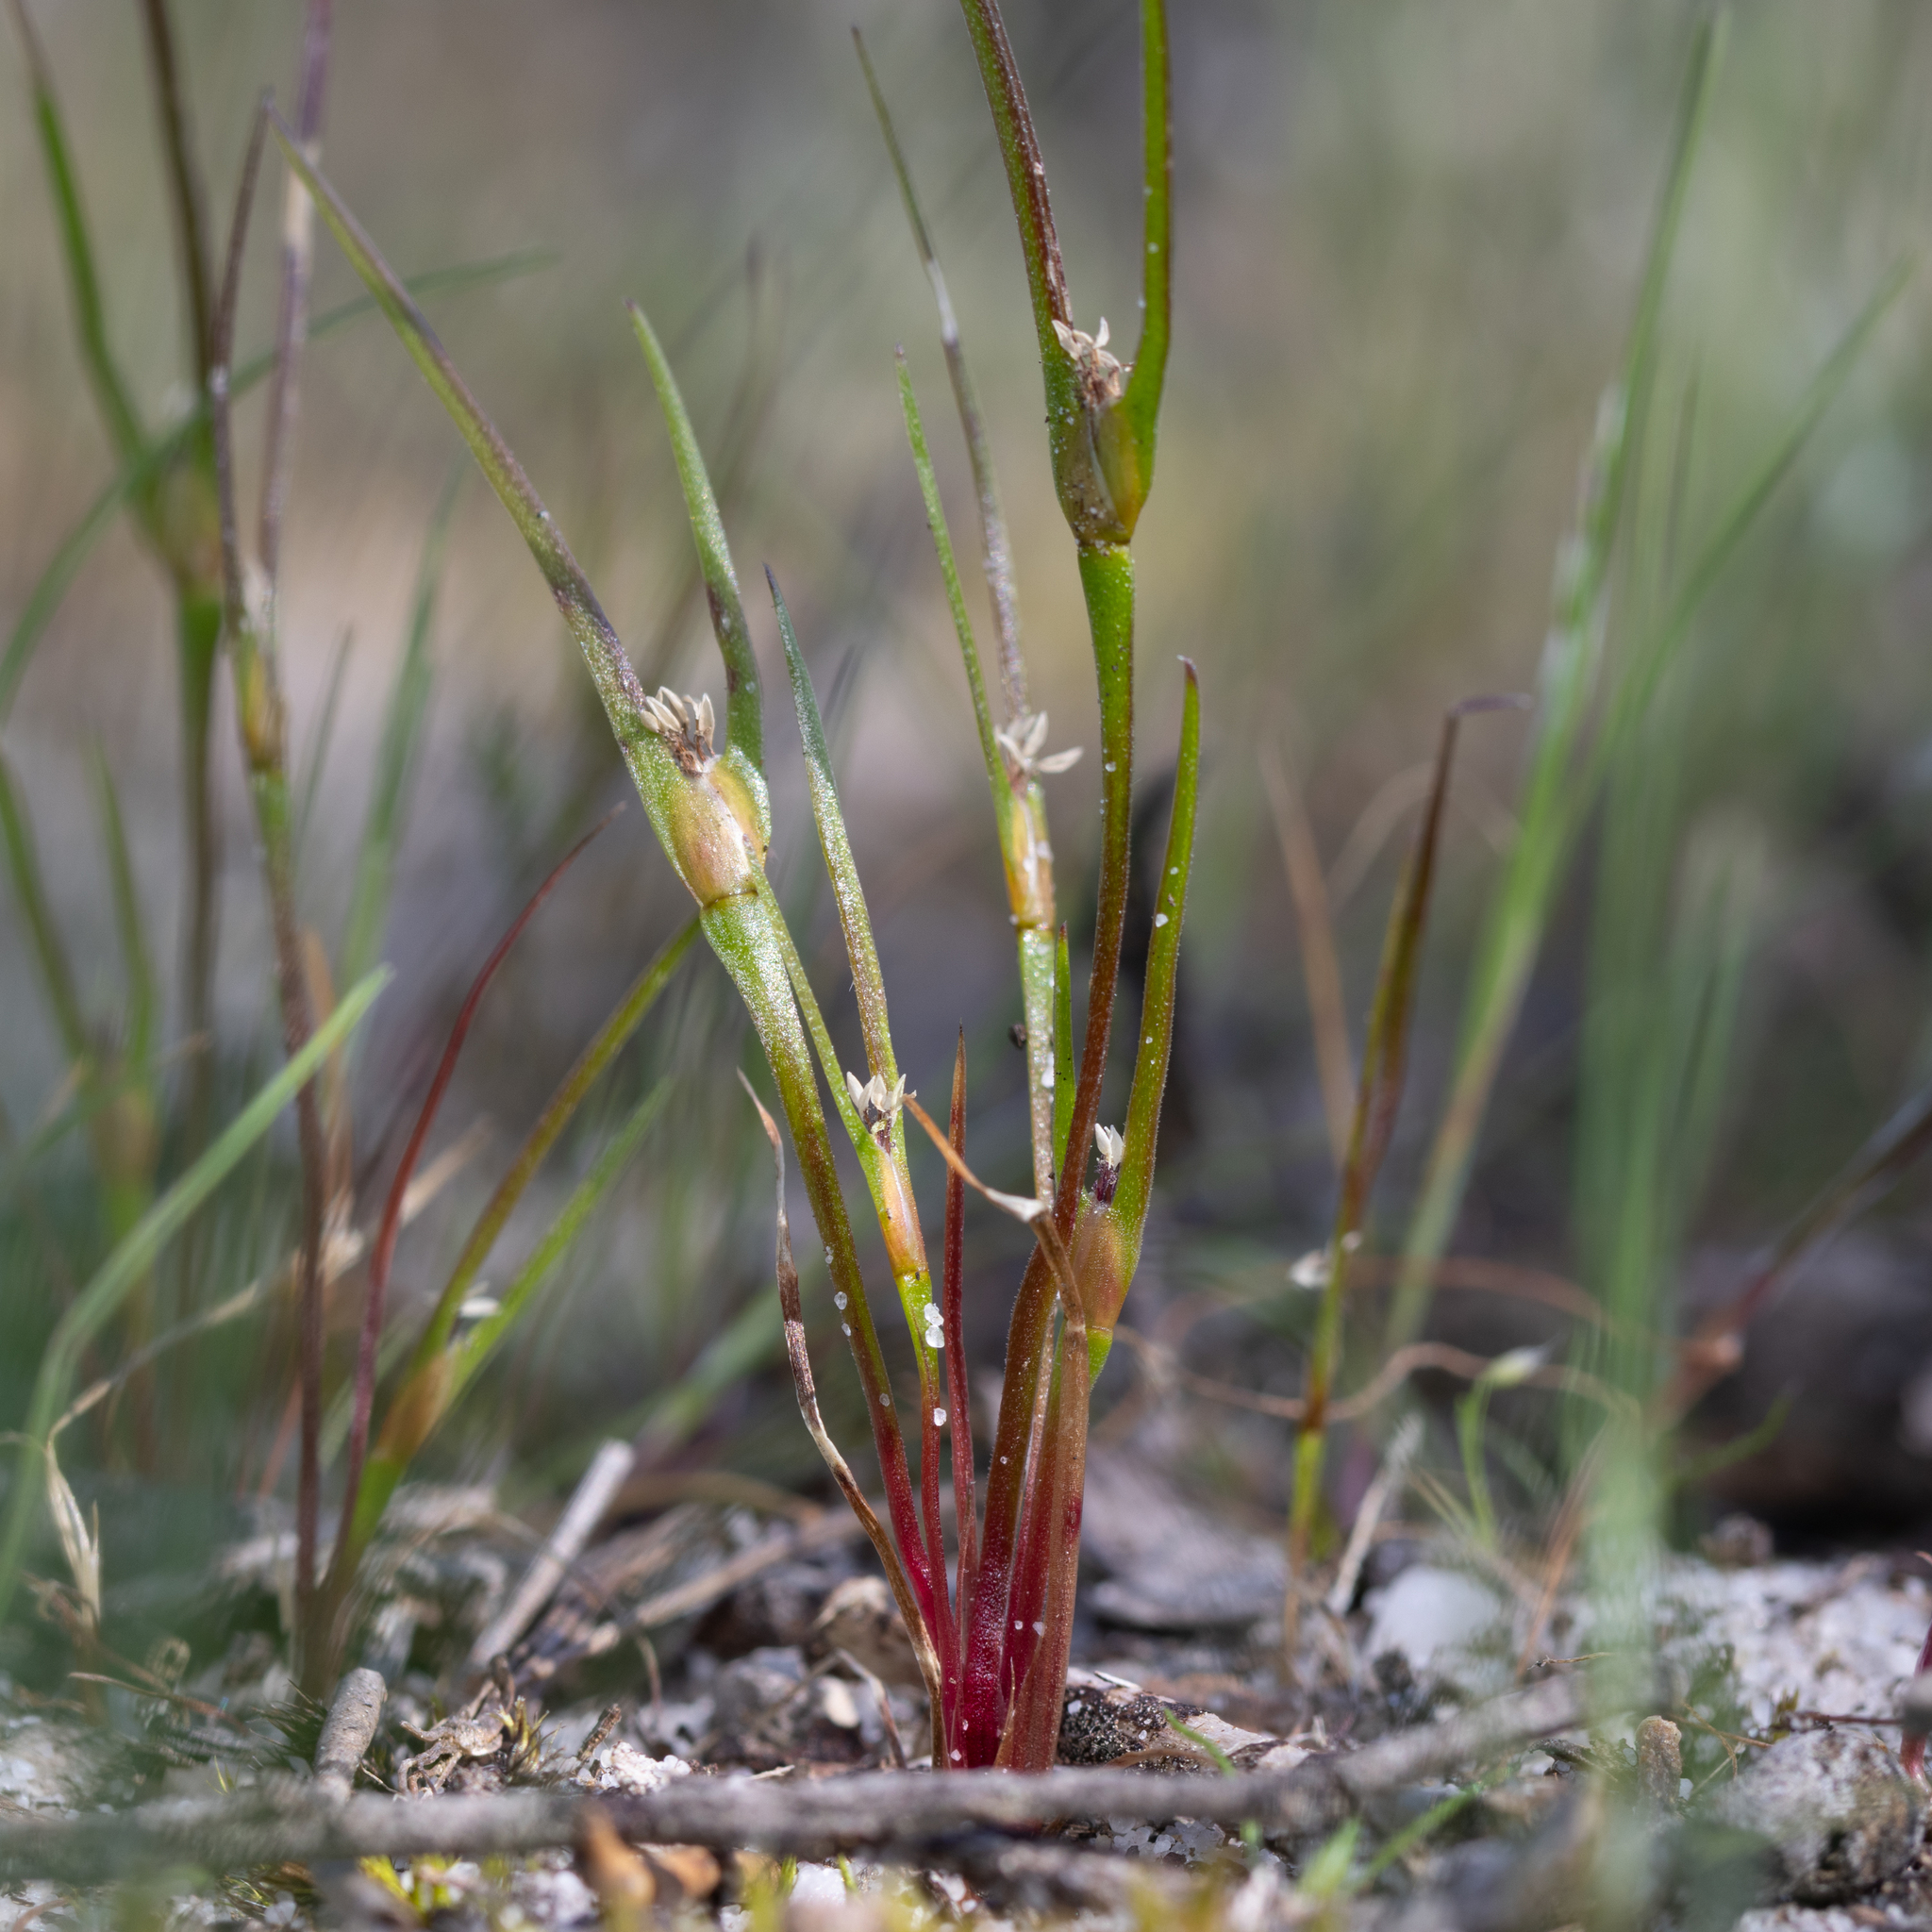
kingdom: Plantae
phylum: Tracheophyta
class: Liliopsida
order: Poales
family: Restionaceae
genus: Centrolepis
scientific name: Centrolepis aristata
